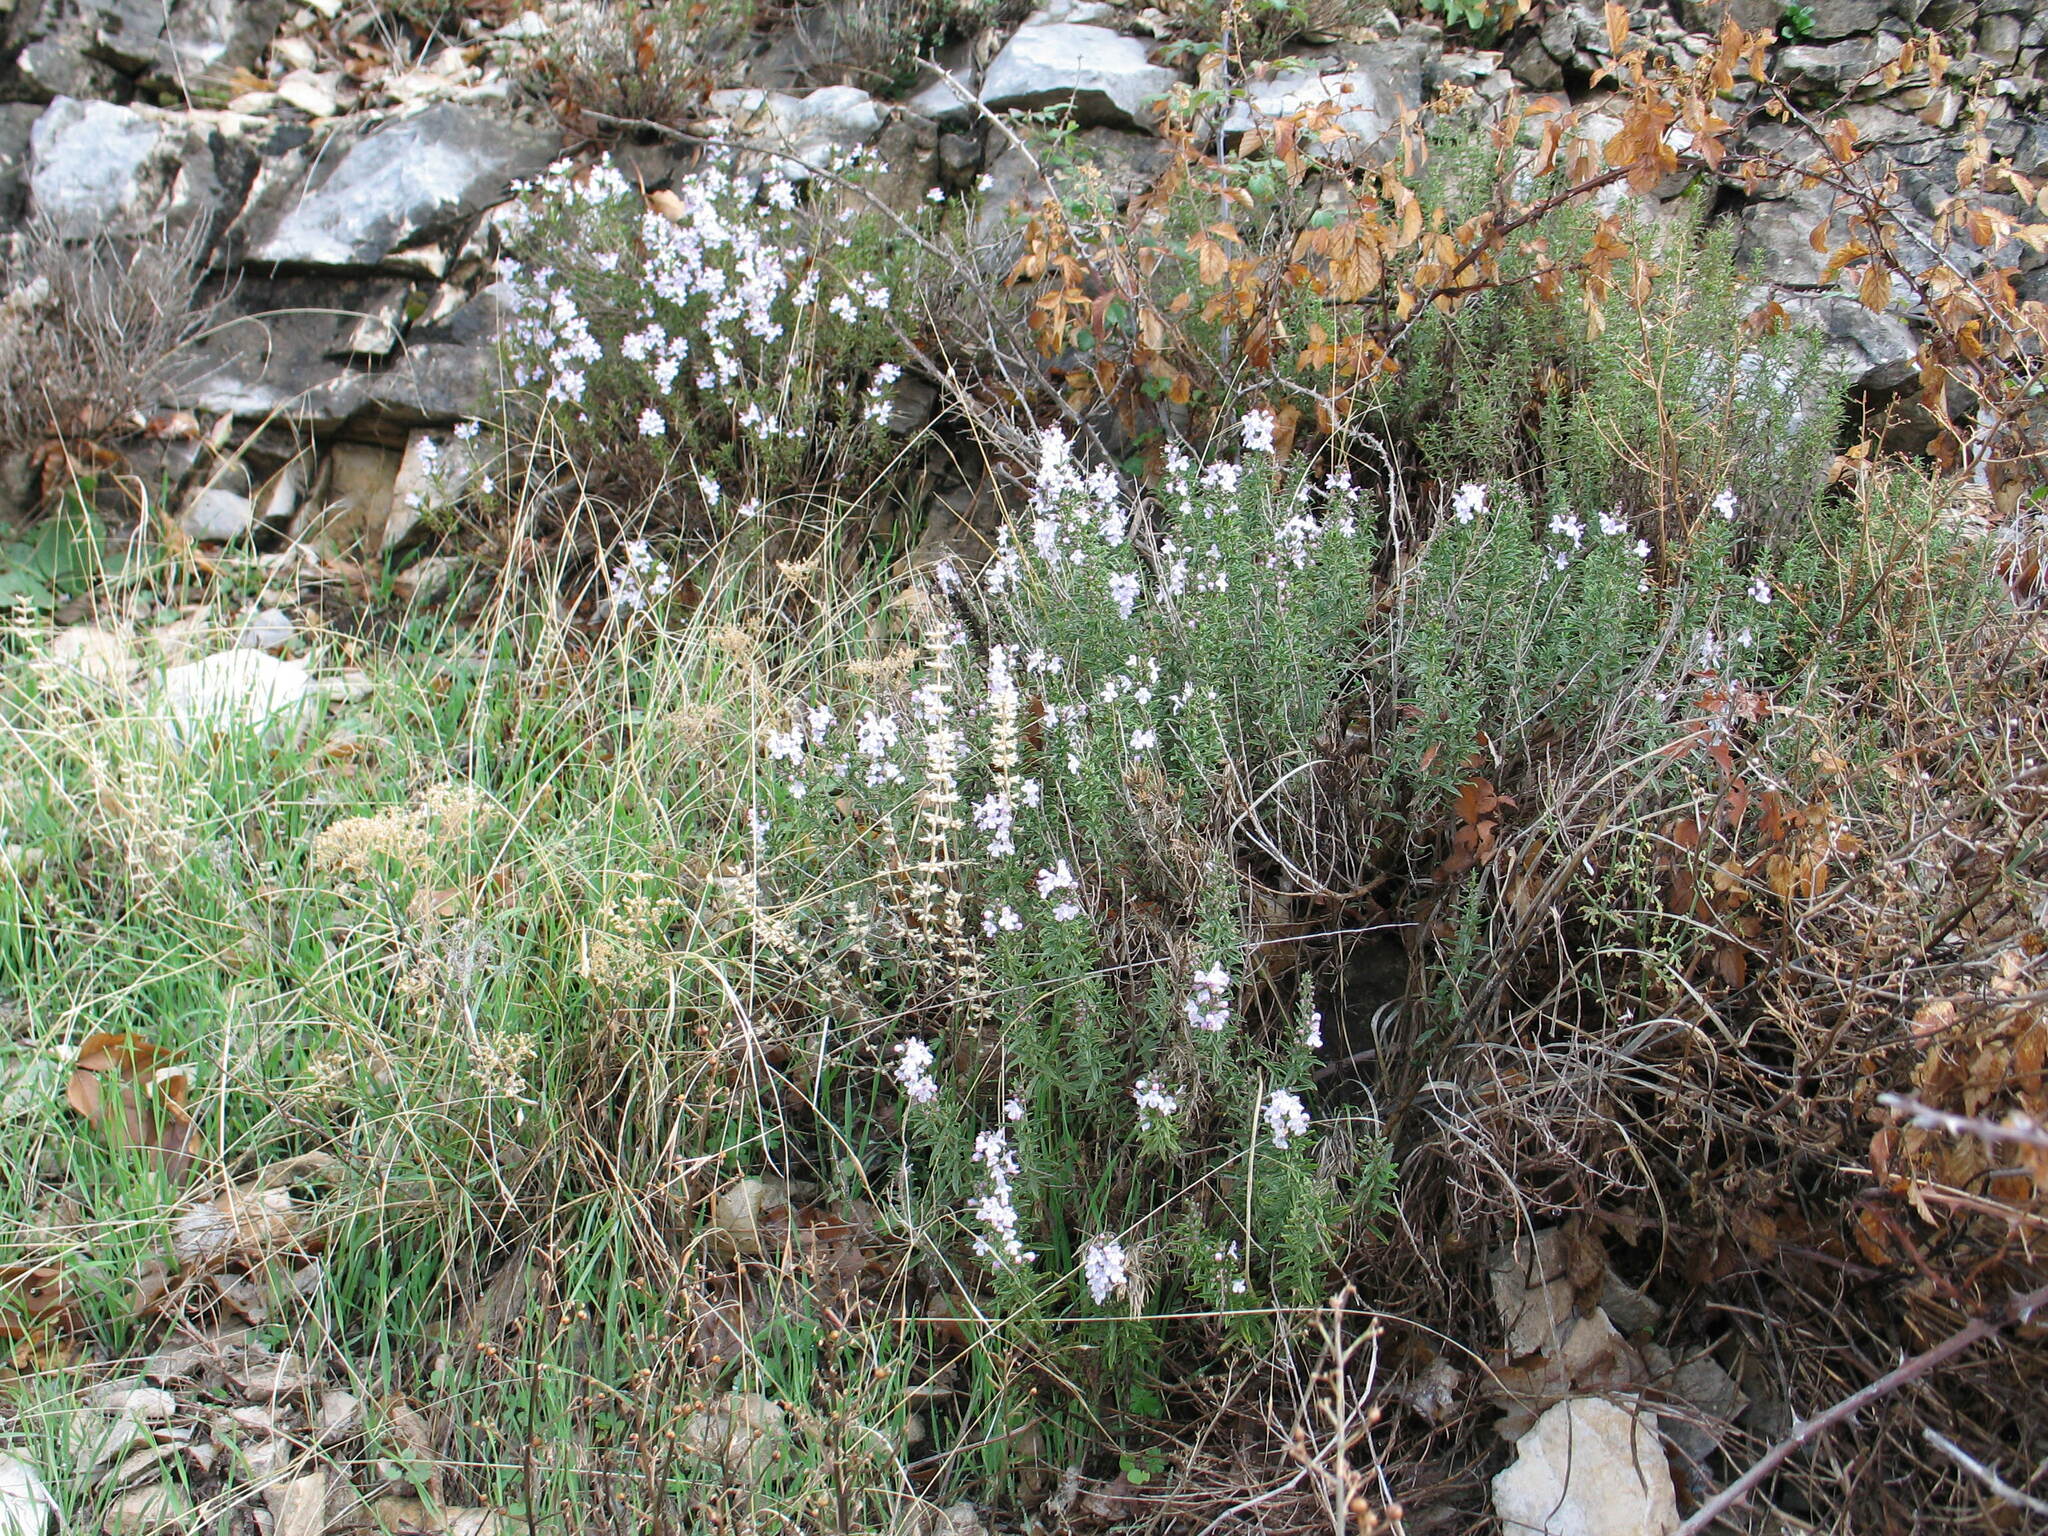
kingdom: Plantae
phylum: Tracheophyta
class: Magnoliopsida
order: Lamiales
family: Lamiaceae
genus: Satureja
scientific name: Satureja montana
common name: Winter savory
